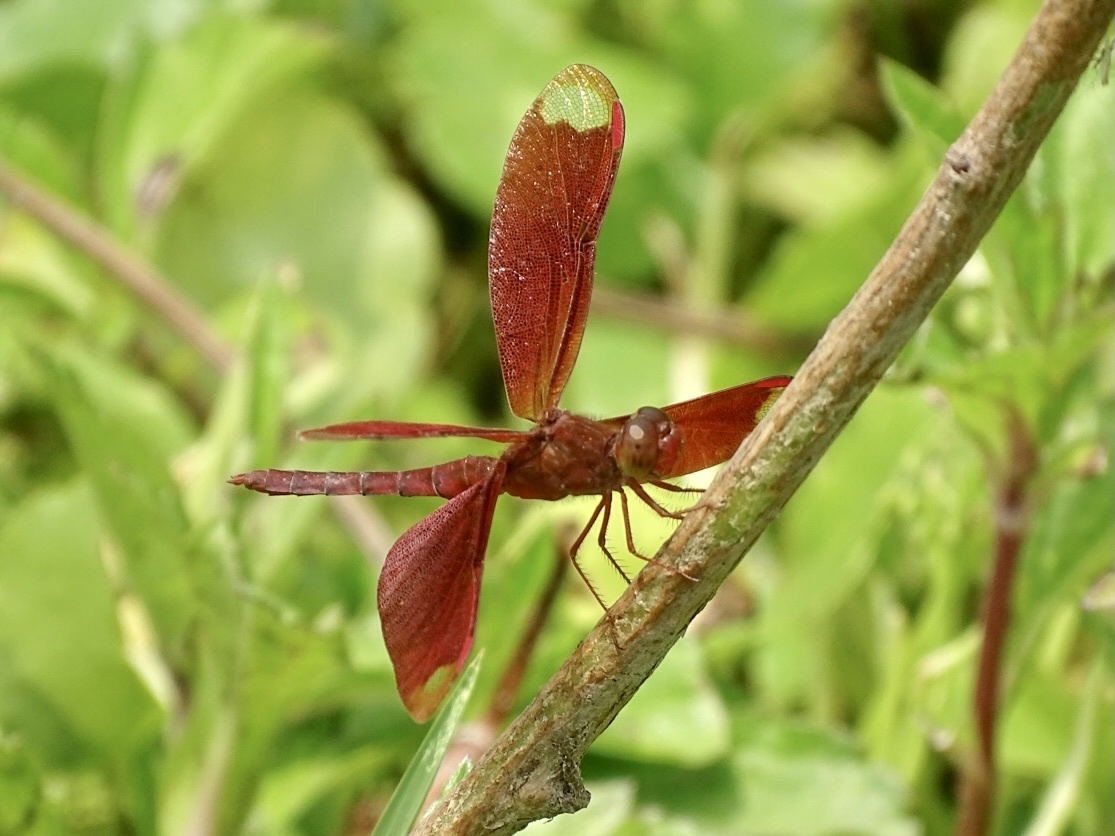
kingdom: Animalia
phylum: Arthropoda
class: Insecta
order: Odonata
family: Libellulidae
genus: Neurothemis
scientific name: Neurothemis fulvia
